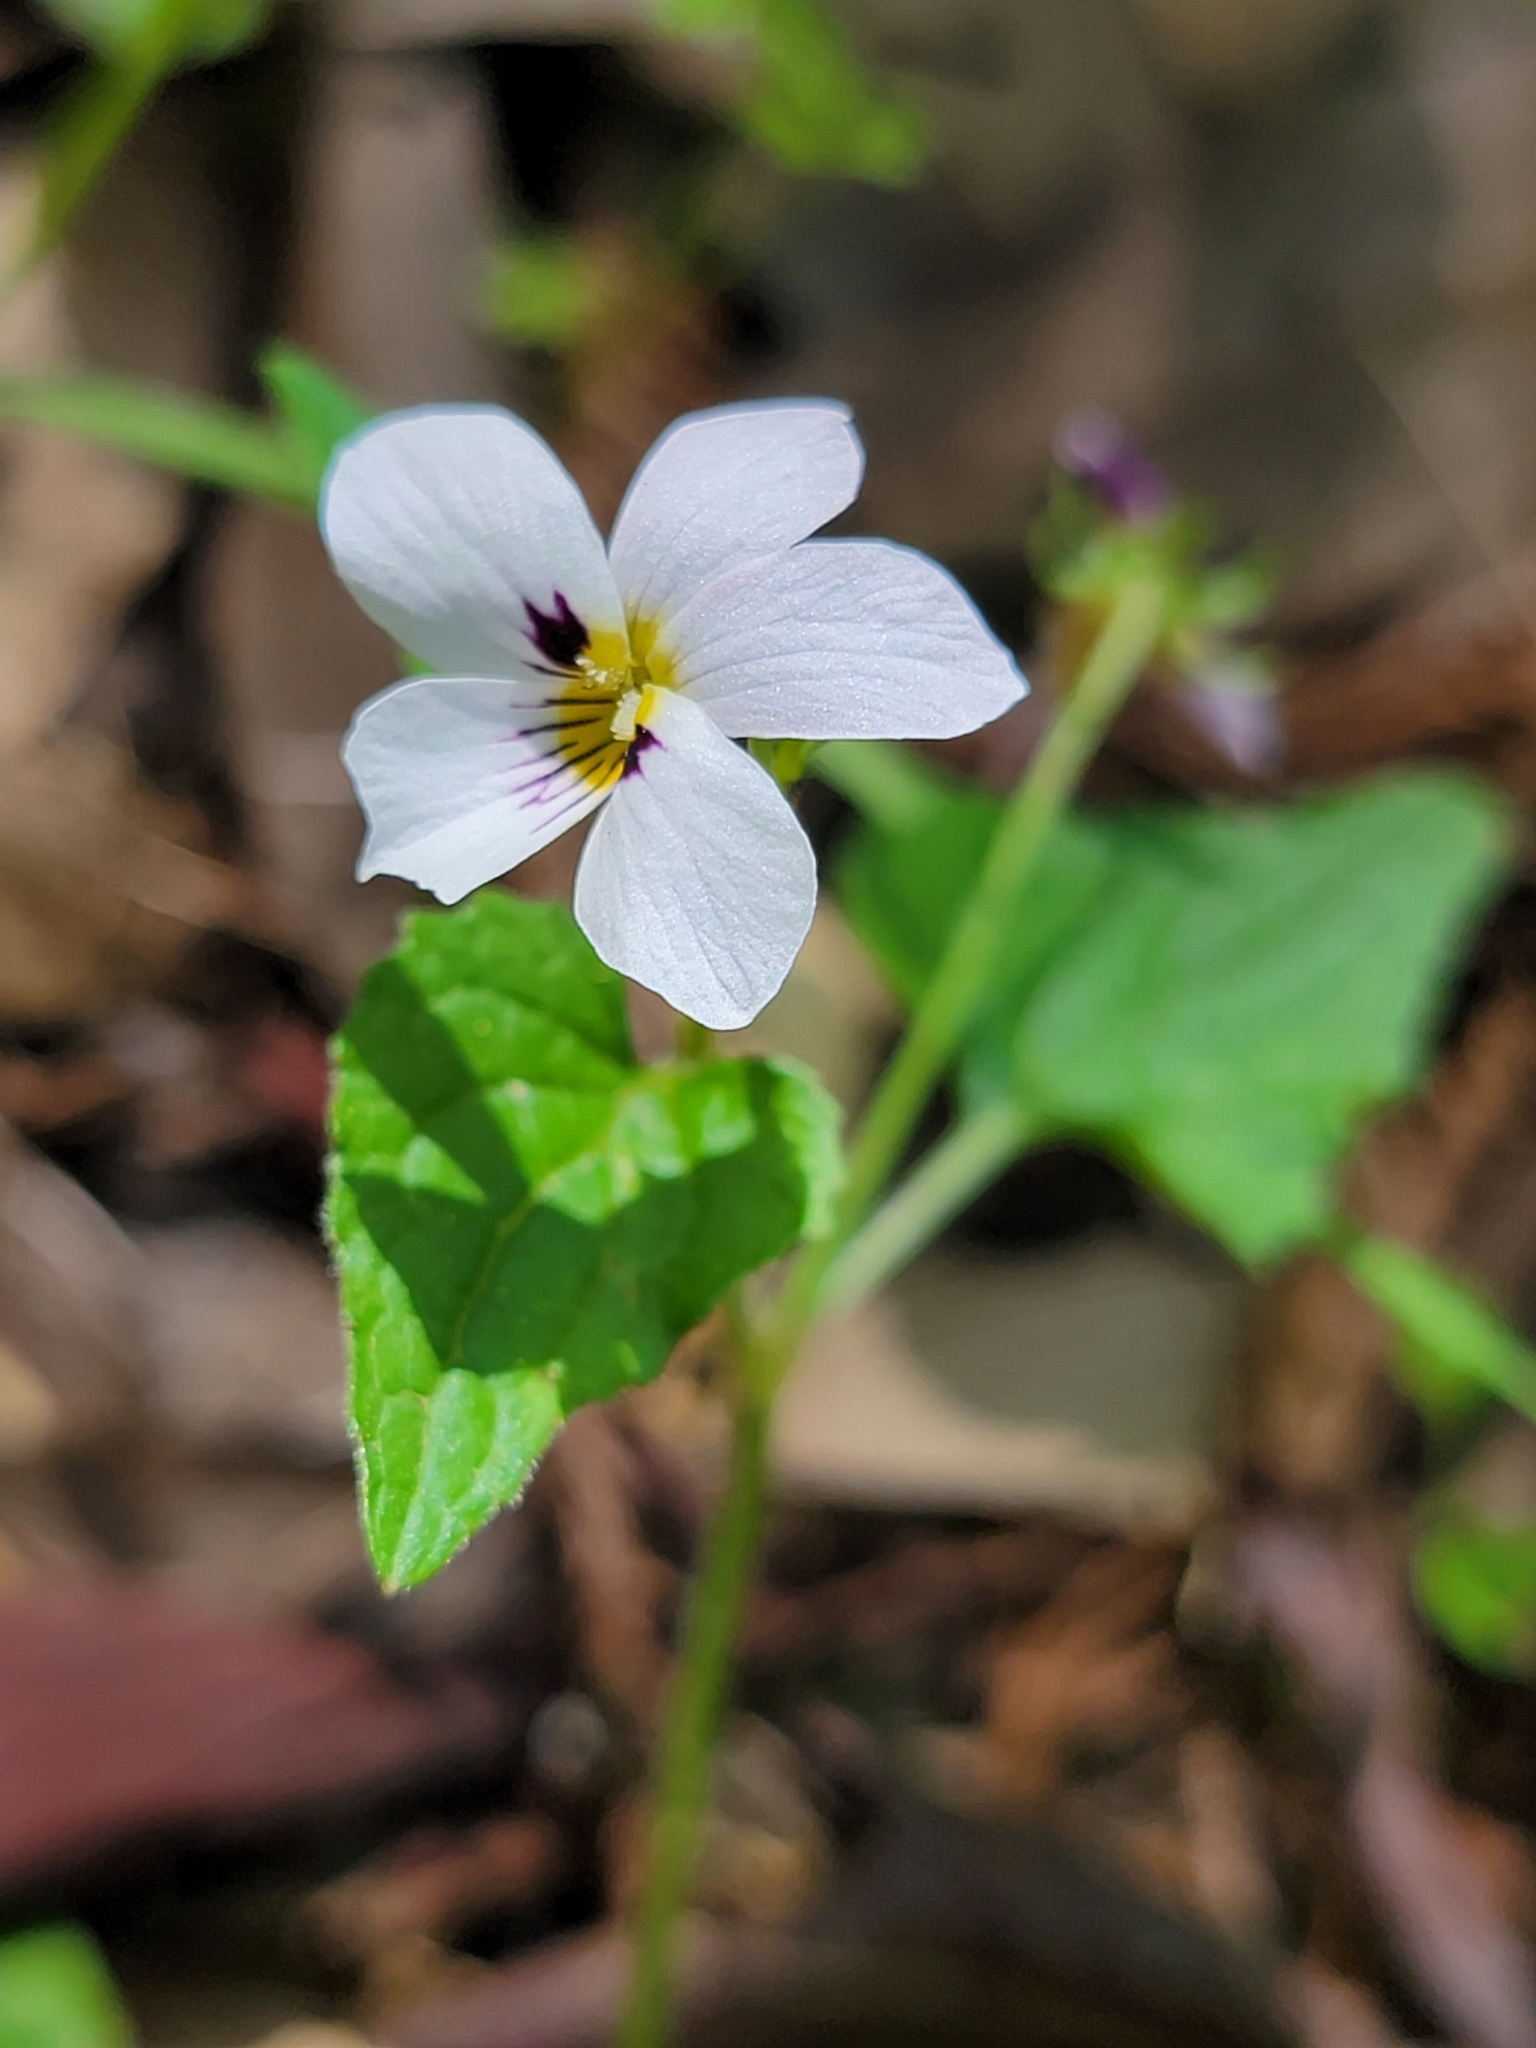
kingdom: Plantae
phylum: Tracheophyta
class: Magnoliopsida
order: Malpighiales
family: Violaceae
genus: Viola
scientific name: Viola ocellata
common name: Western heart's ease
